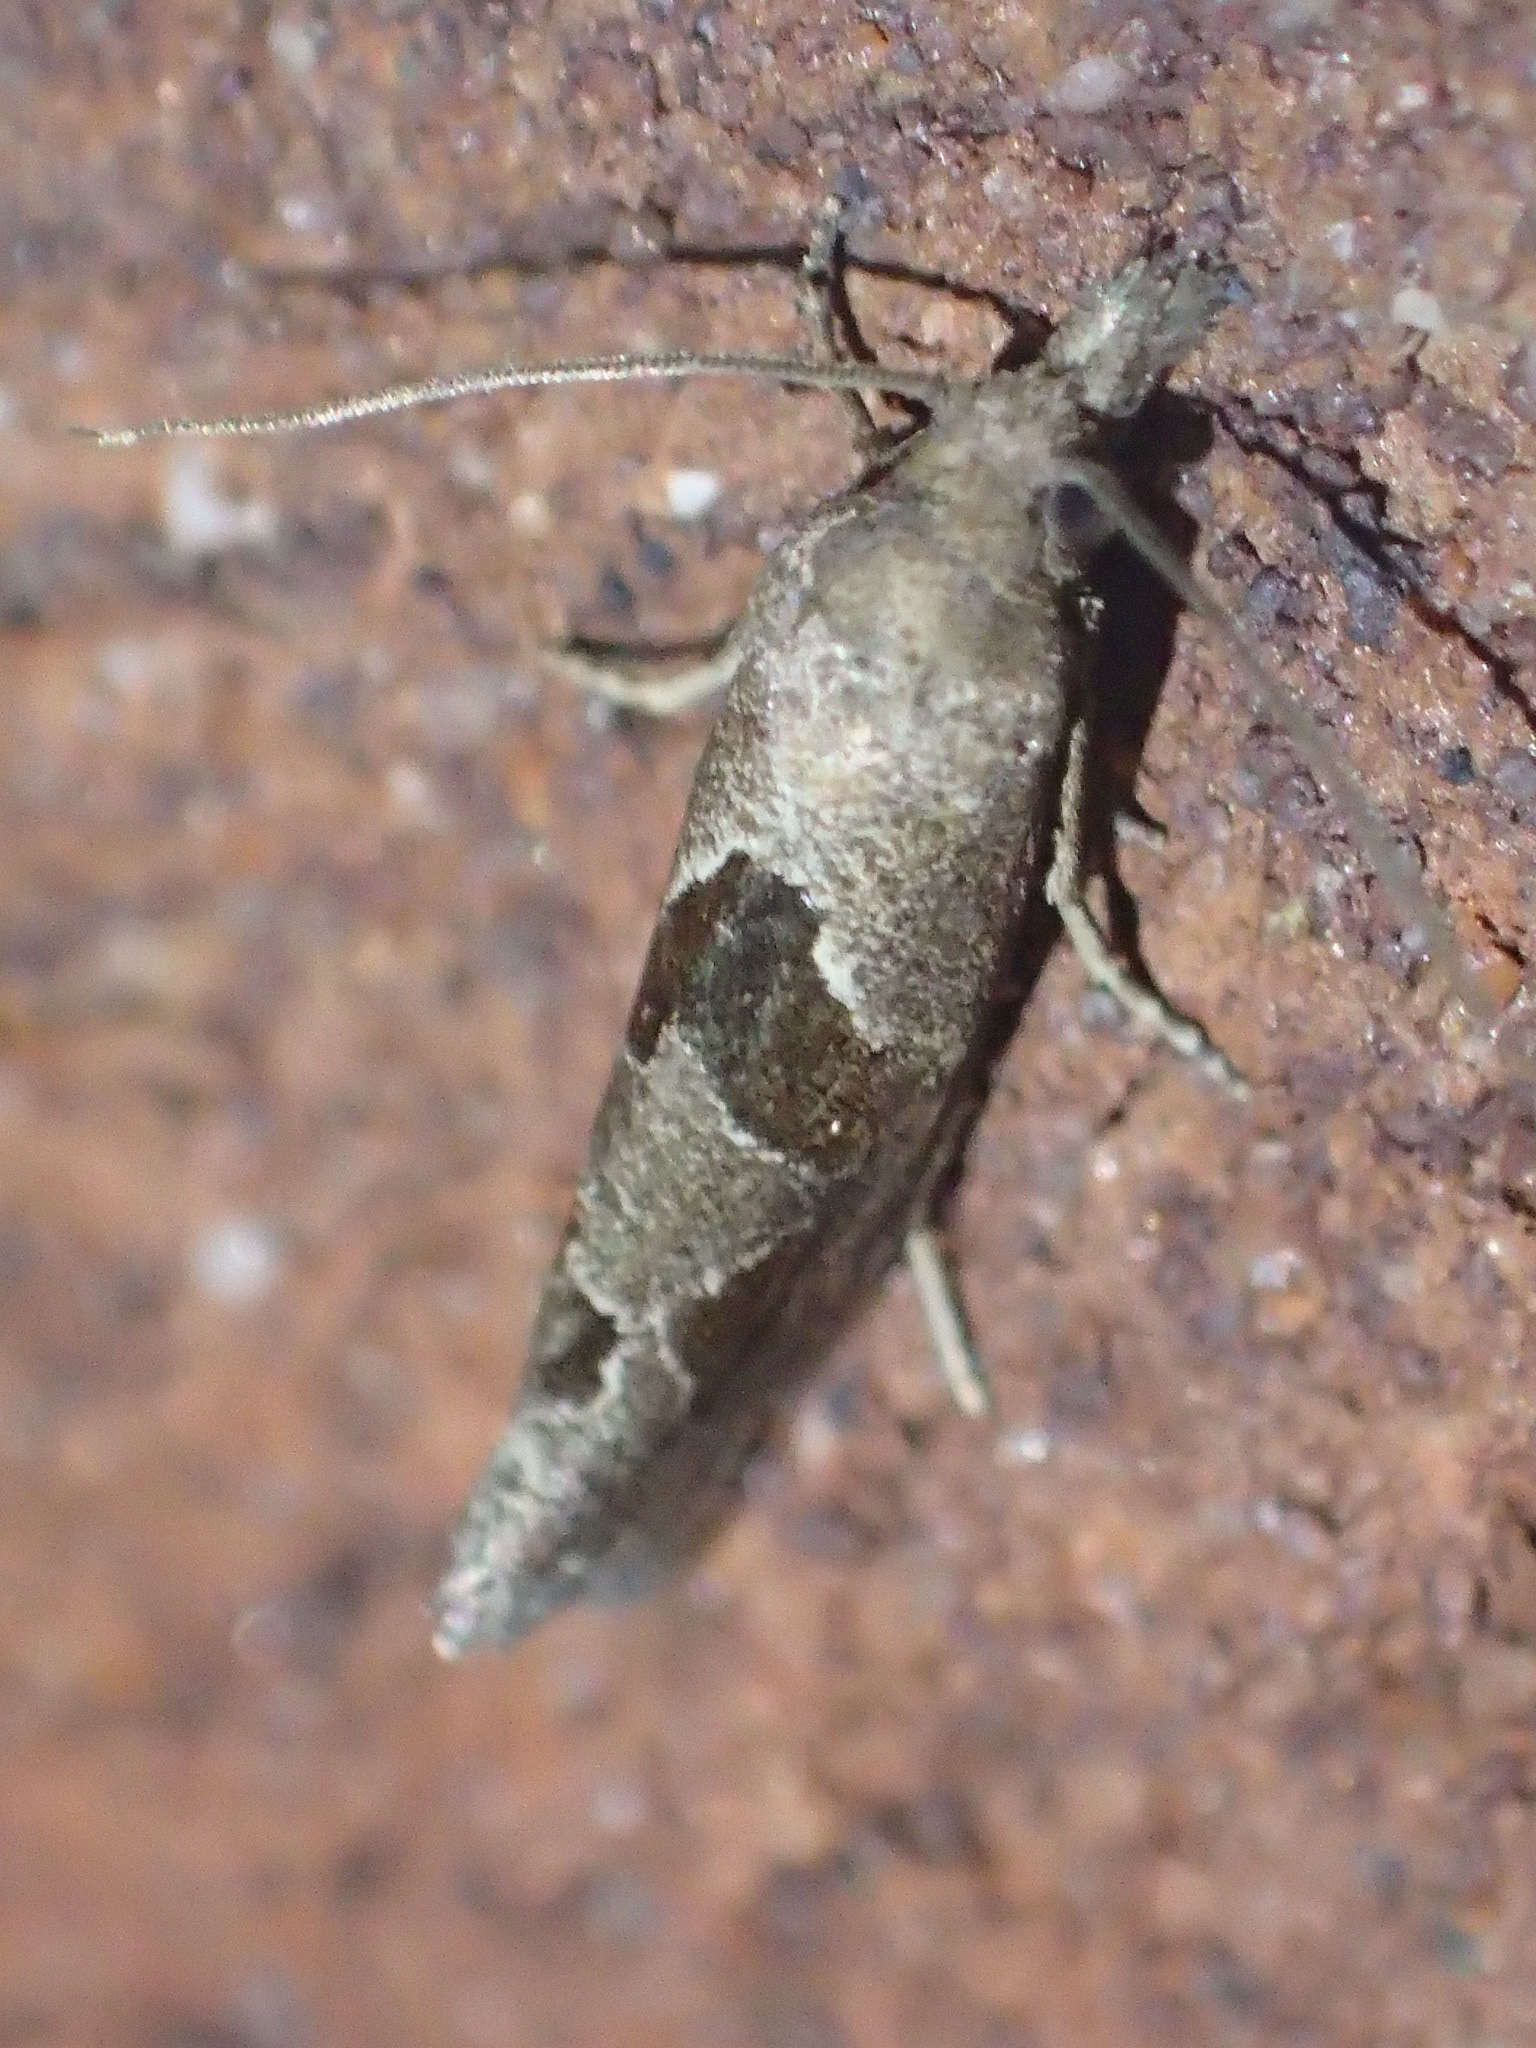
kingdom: Animalia
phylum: Arthropoda
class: Insecta
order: Lepidoptera
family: Tortricidae
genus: Pelochrista
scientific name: Pelochrista similiana
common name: Similar eucosma
